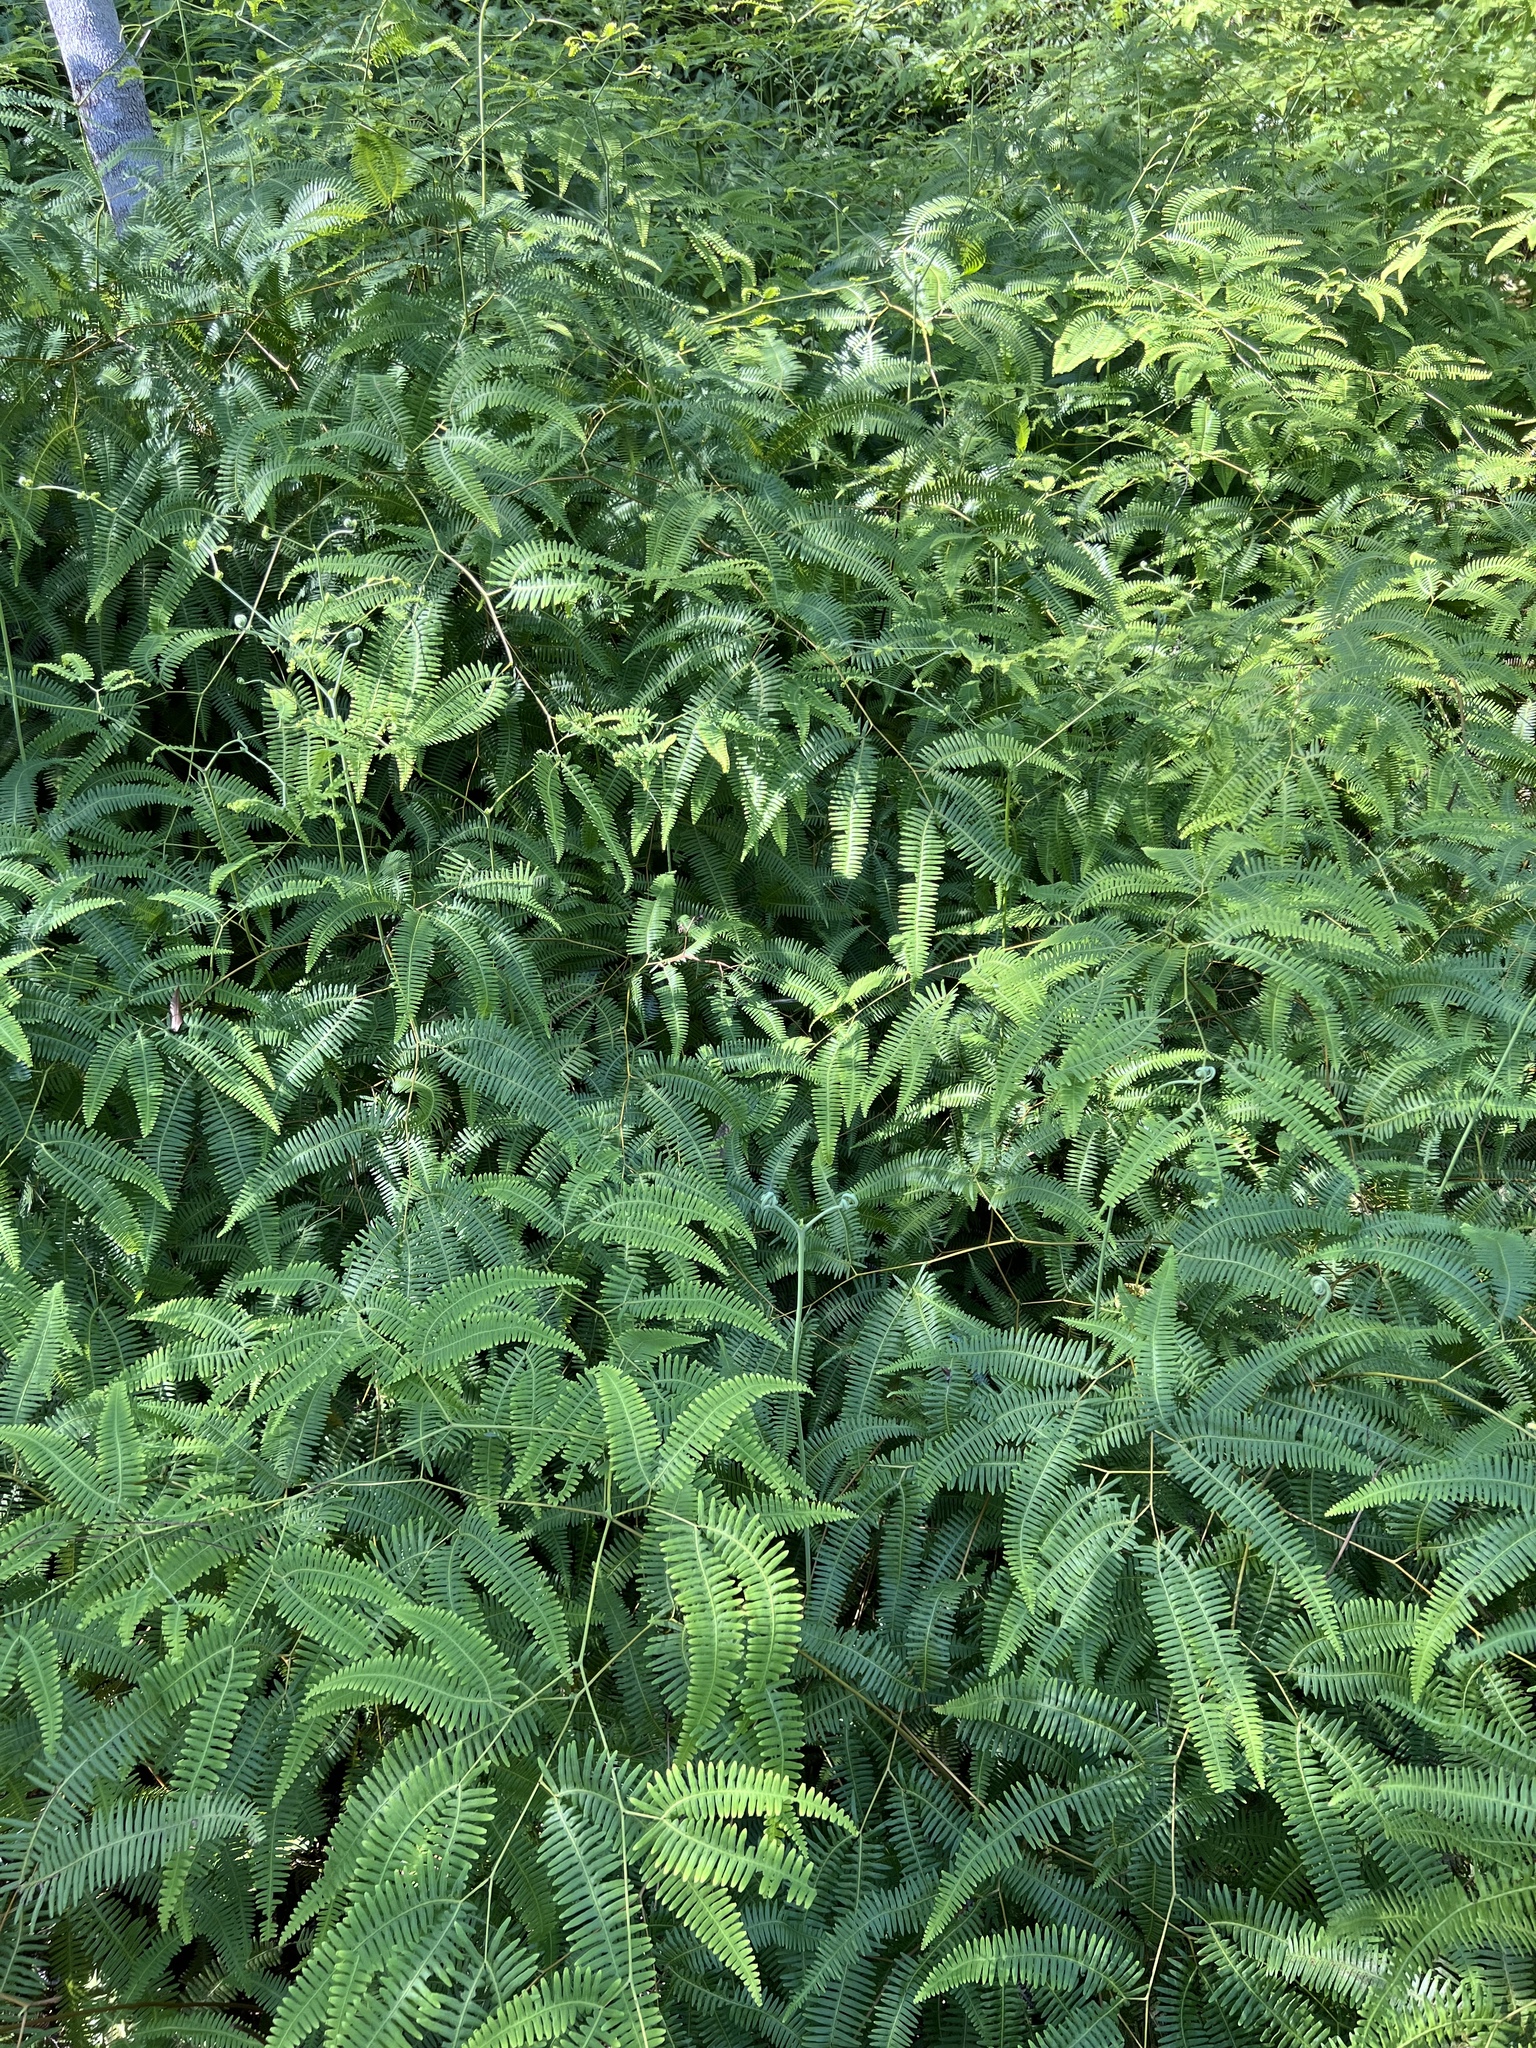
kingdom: Plantae
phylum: Tracheophyta
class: Polypodiopsida
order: Gleicheniales
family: Gleicheniaceae
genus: Gleichenella
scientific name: Gleichenella pectinata
